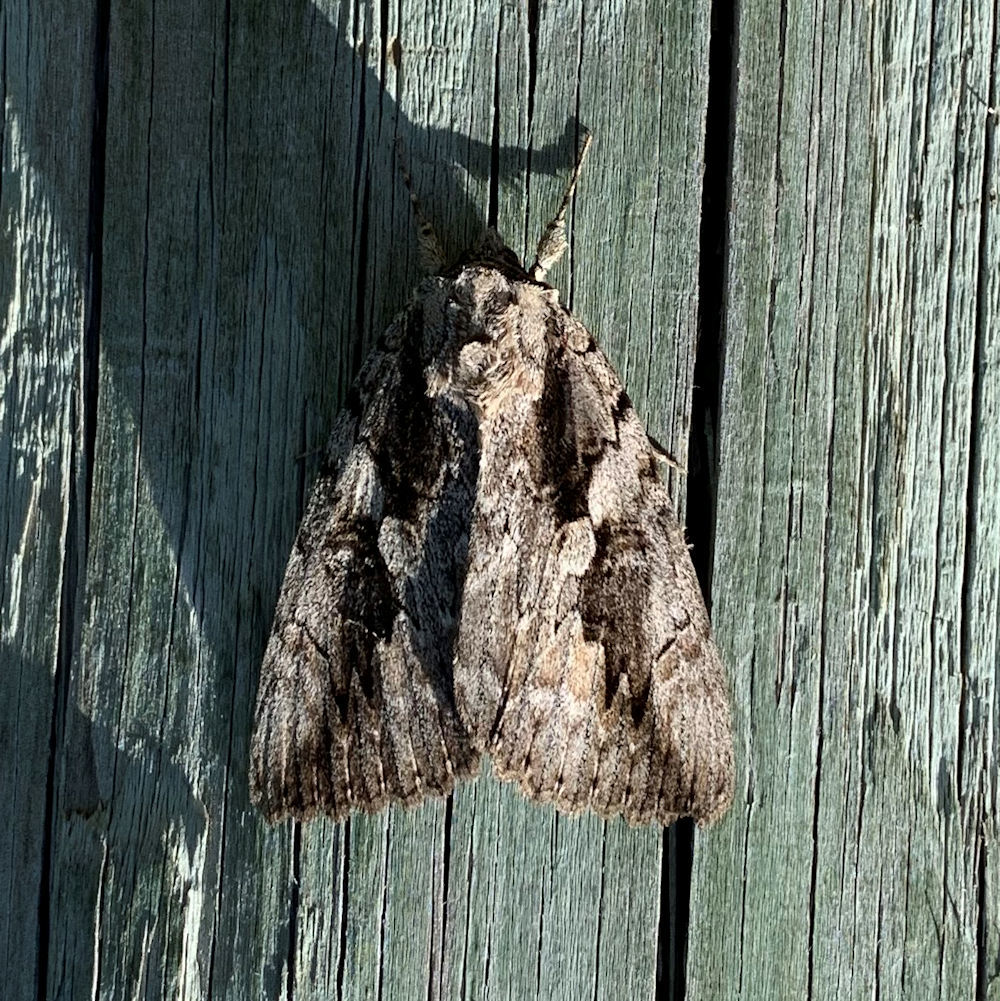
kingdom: Animalia
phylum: Arthropoda
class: Insecta
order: Lepidoptera
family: Erebidae
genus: Catocala
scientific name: Catocala amatrix
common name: Sweetheart underwing
